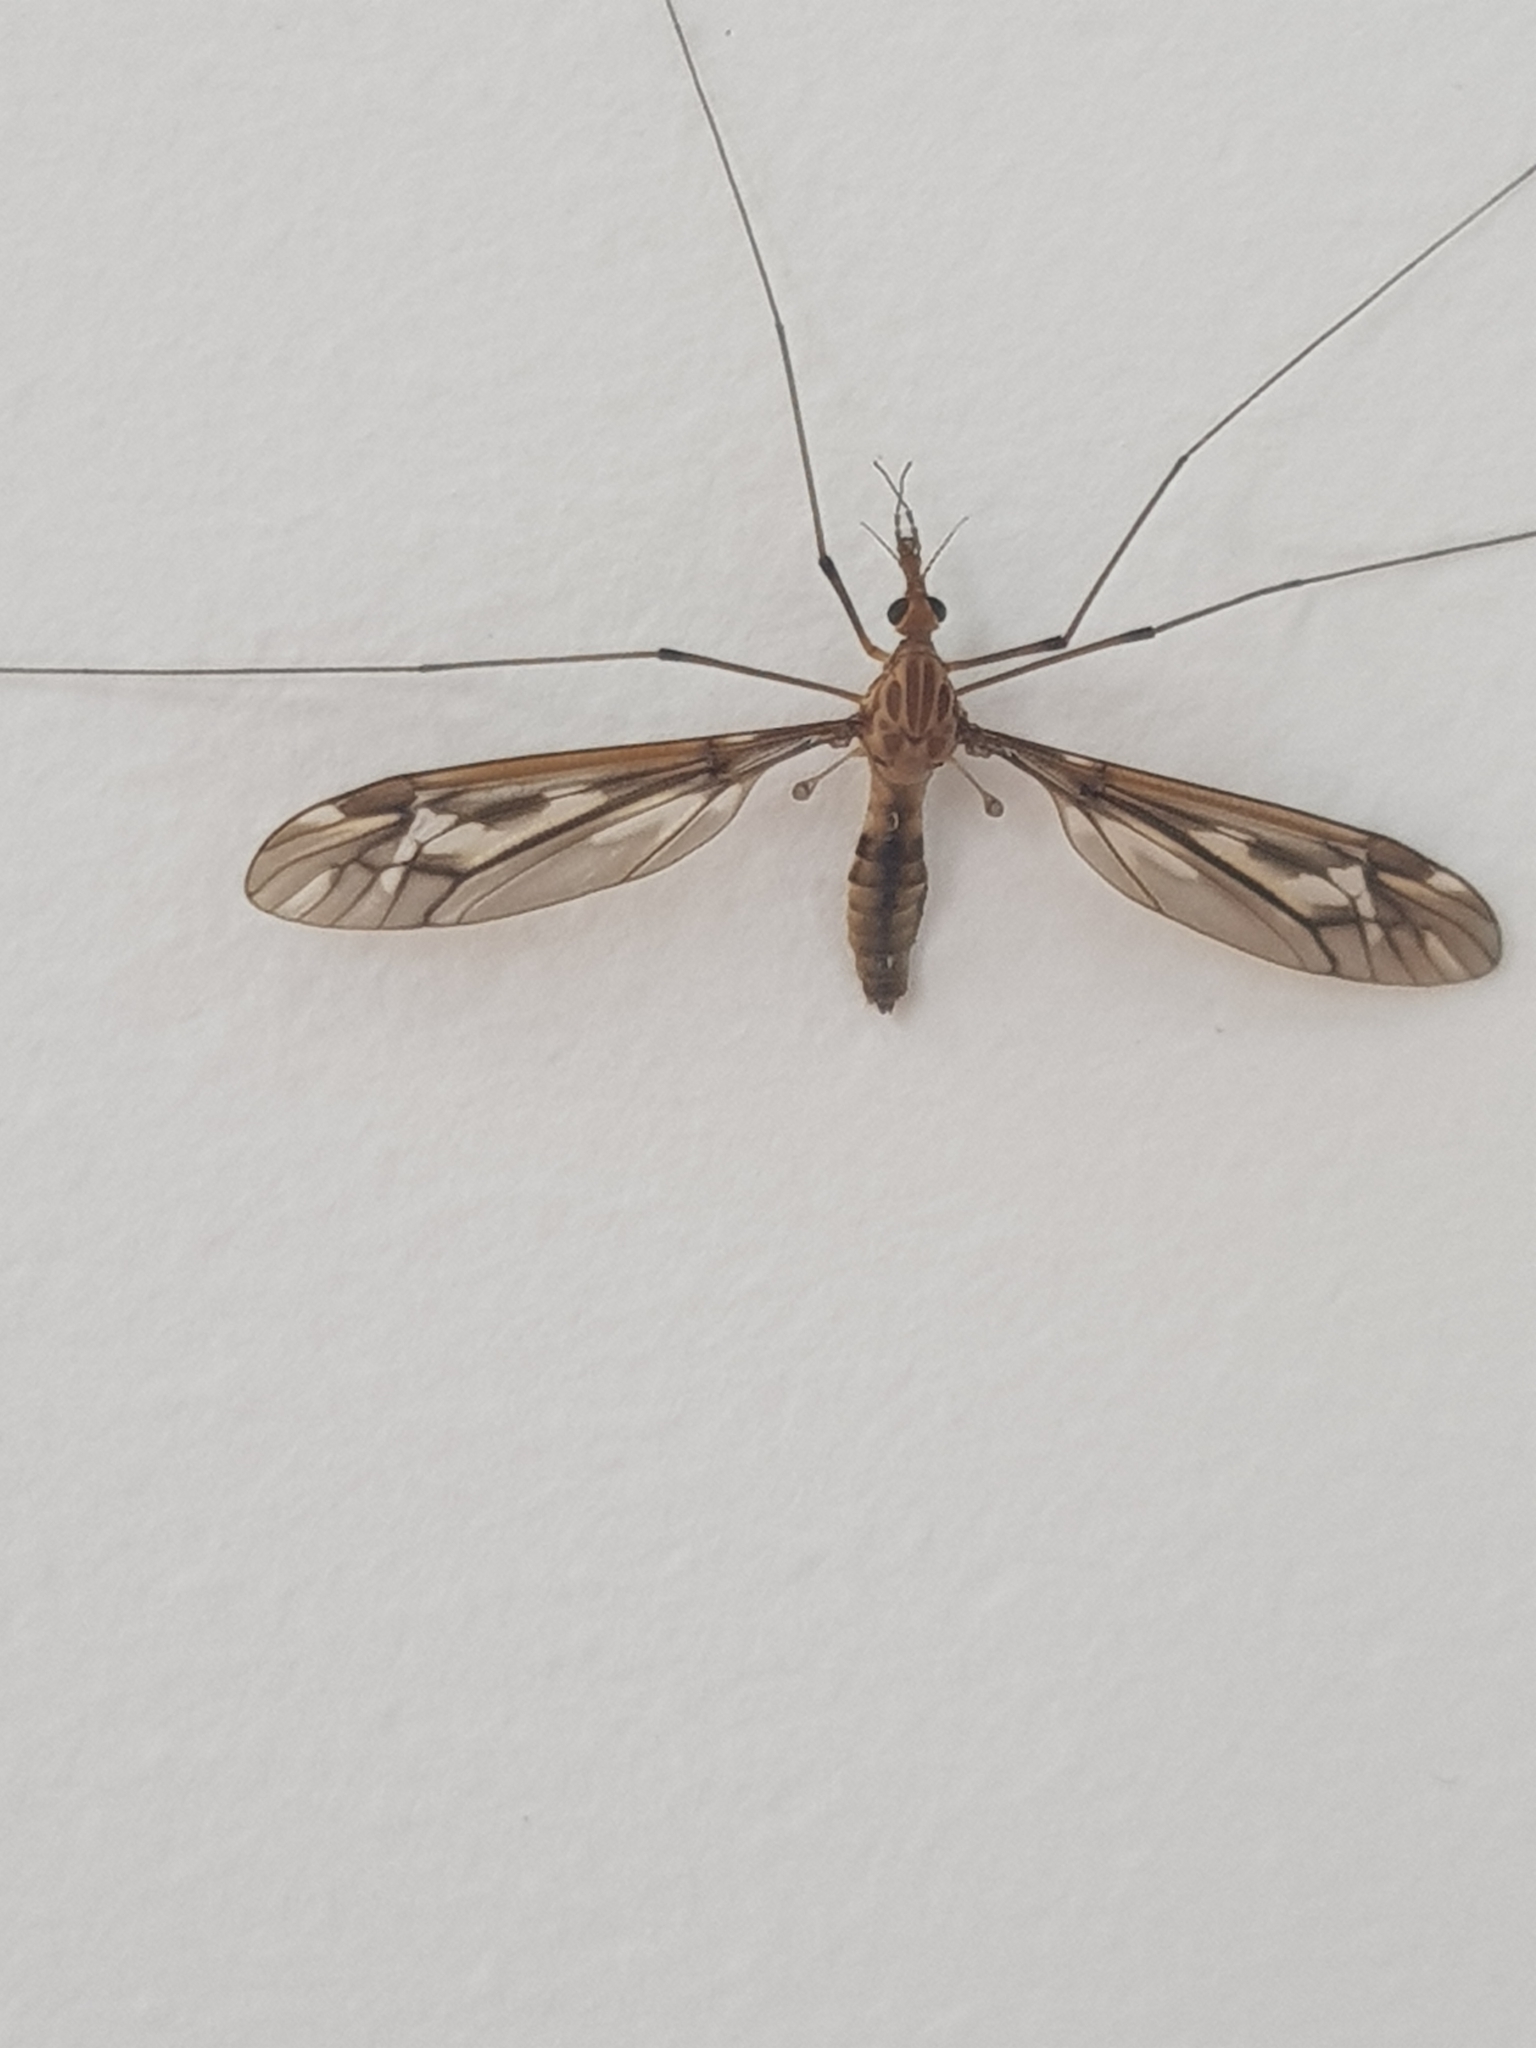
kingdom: Animalia
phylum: Arthropoda
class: Insecta
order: Diptera
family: Tipulidae
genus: Leptotarsus
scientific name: Leptotarsus huttoni
